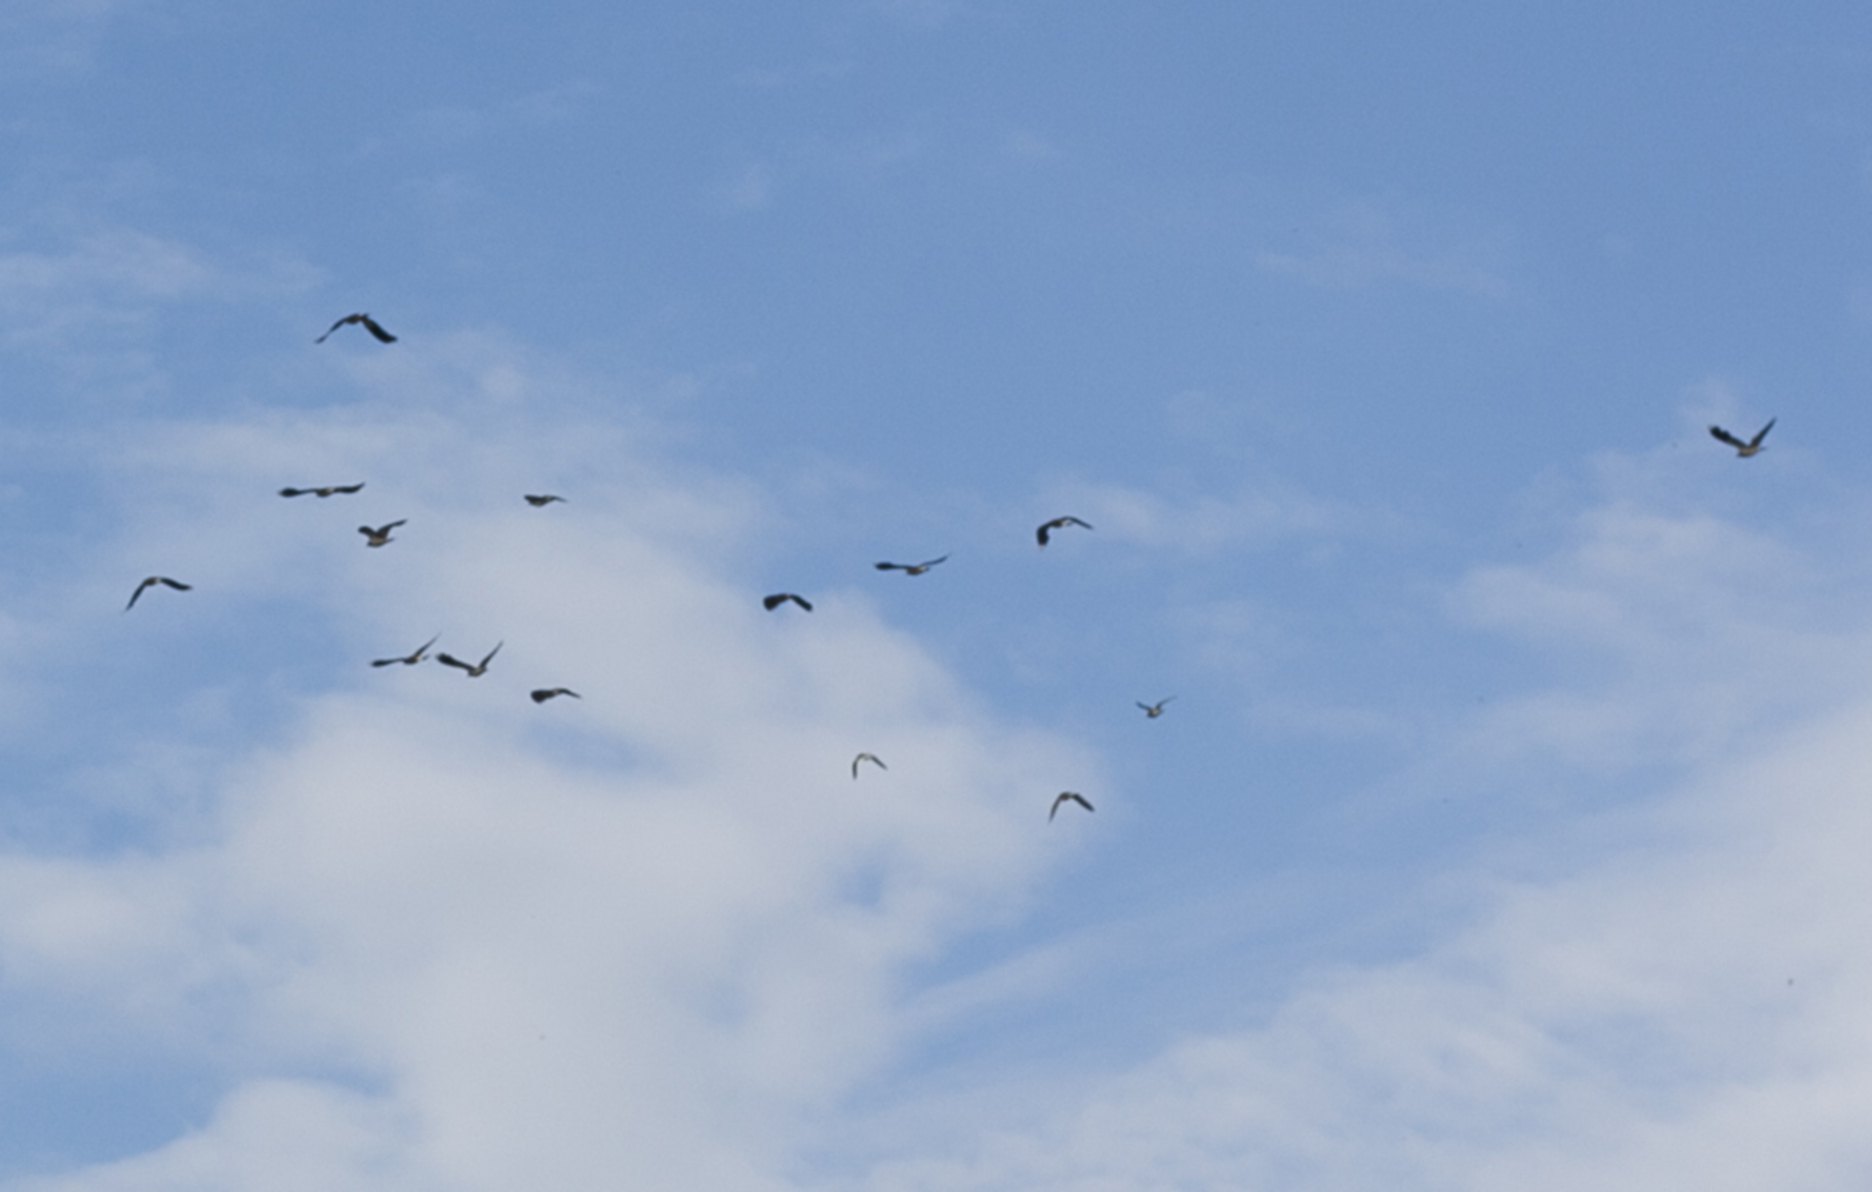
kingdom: Animalia
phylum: Chordata
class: Aves
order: Charadriiformes
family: Charadriidae
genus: Vanellus
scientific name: Vanellus vanellus
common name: Northern lapwing
